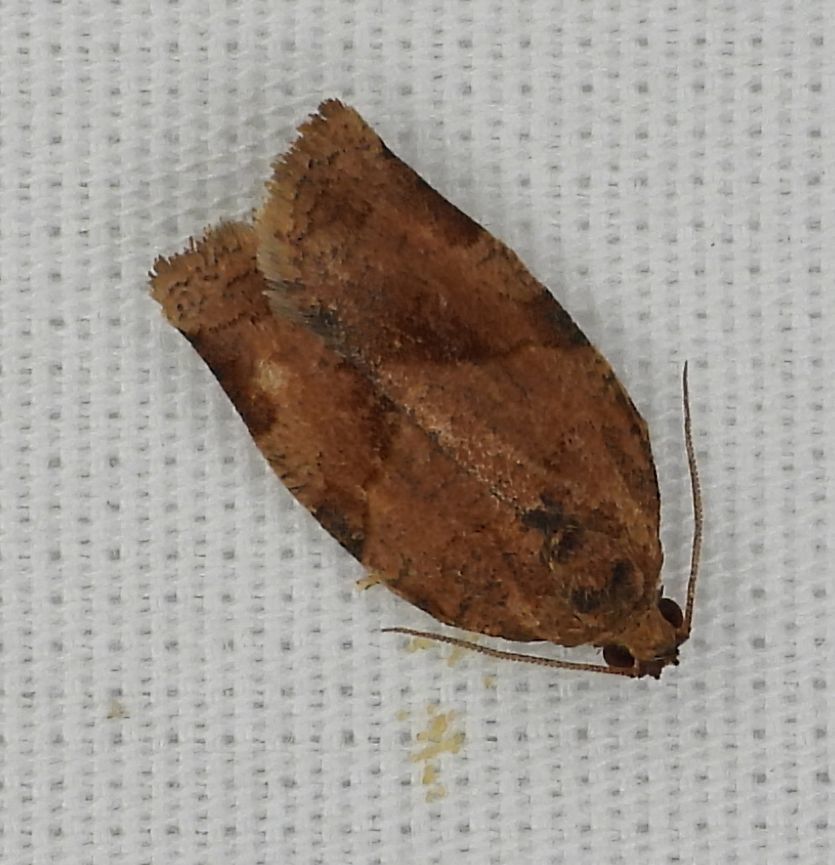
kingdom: Animalia
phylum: Arthropoda
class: Insecta
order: Lepidoptera
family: Tortricidae
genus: Choristoneura
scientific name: Choristoneura rosaceana
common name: Oblique-banded leafroller moth
